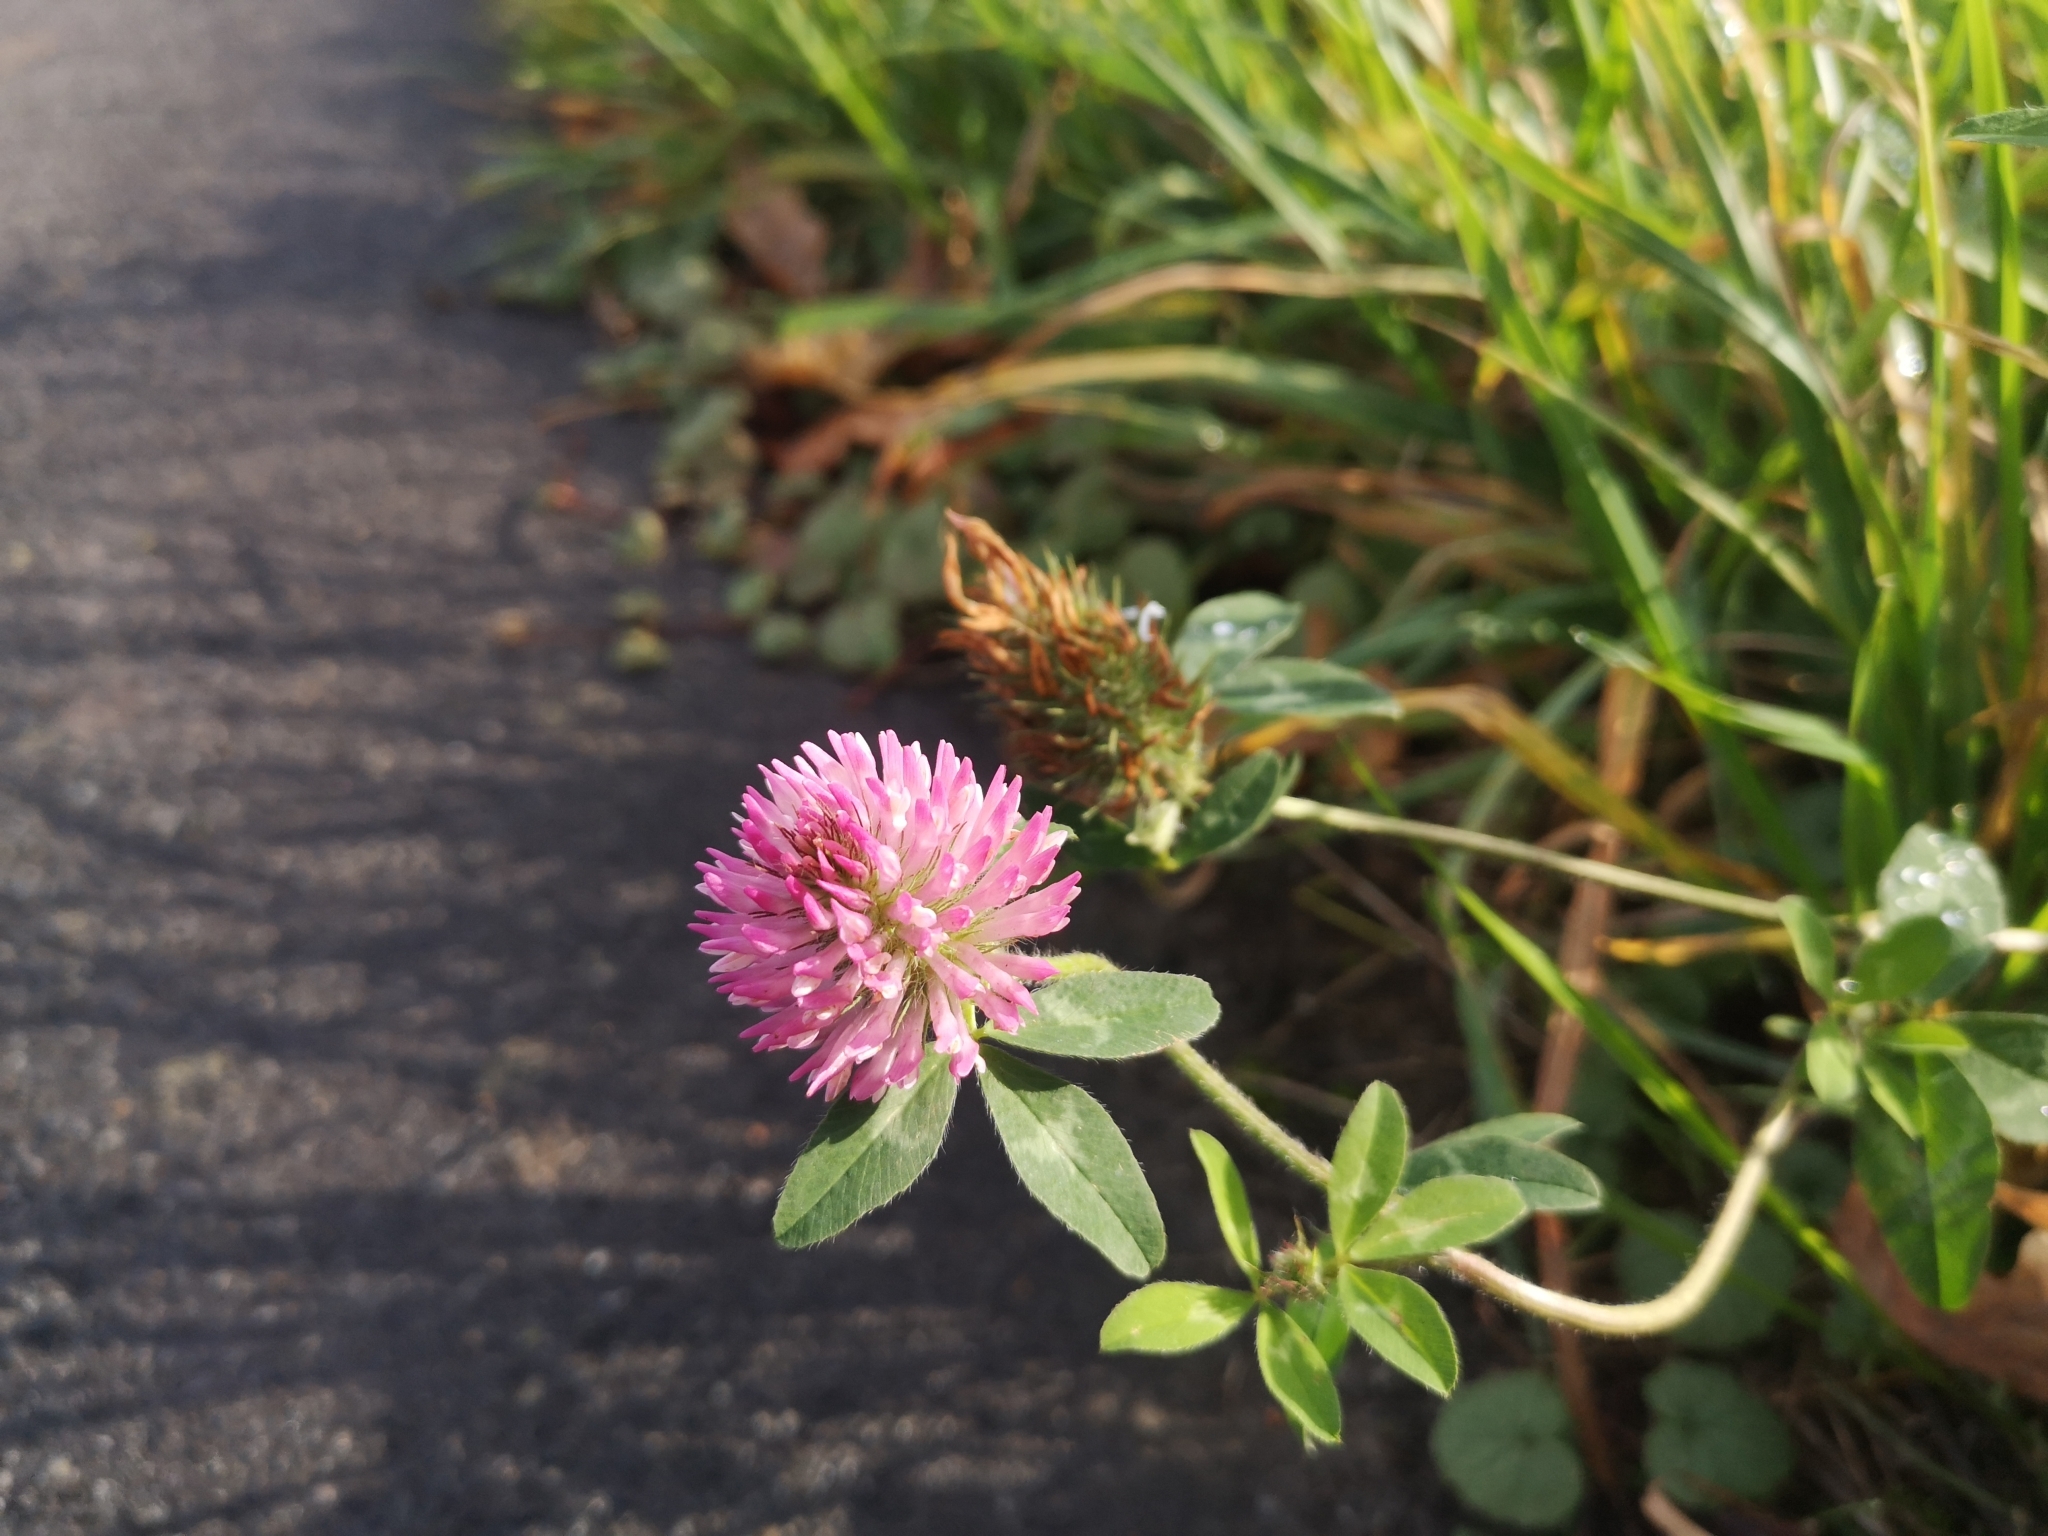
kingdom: Plantae
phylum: Tracheophyta
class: Magnoliopsida
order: Fabales
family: Fabaceae
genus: Trifolium
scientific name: Trifolium pratense
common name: Red clover
